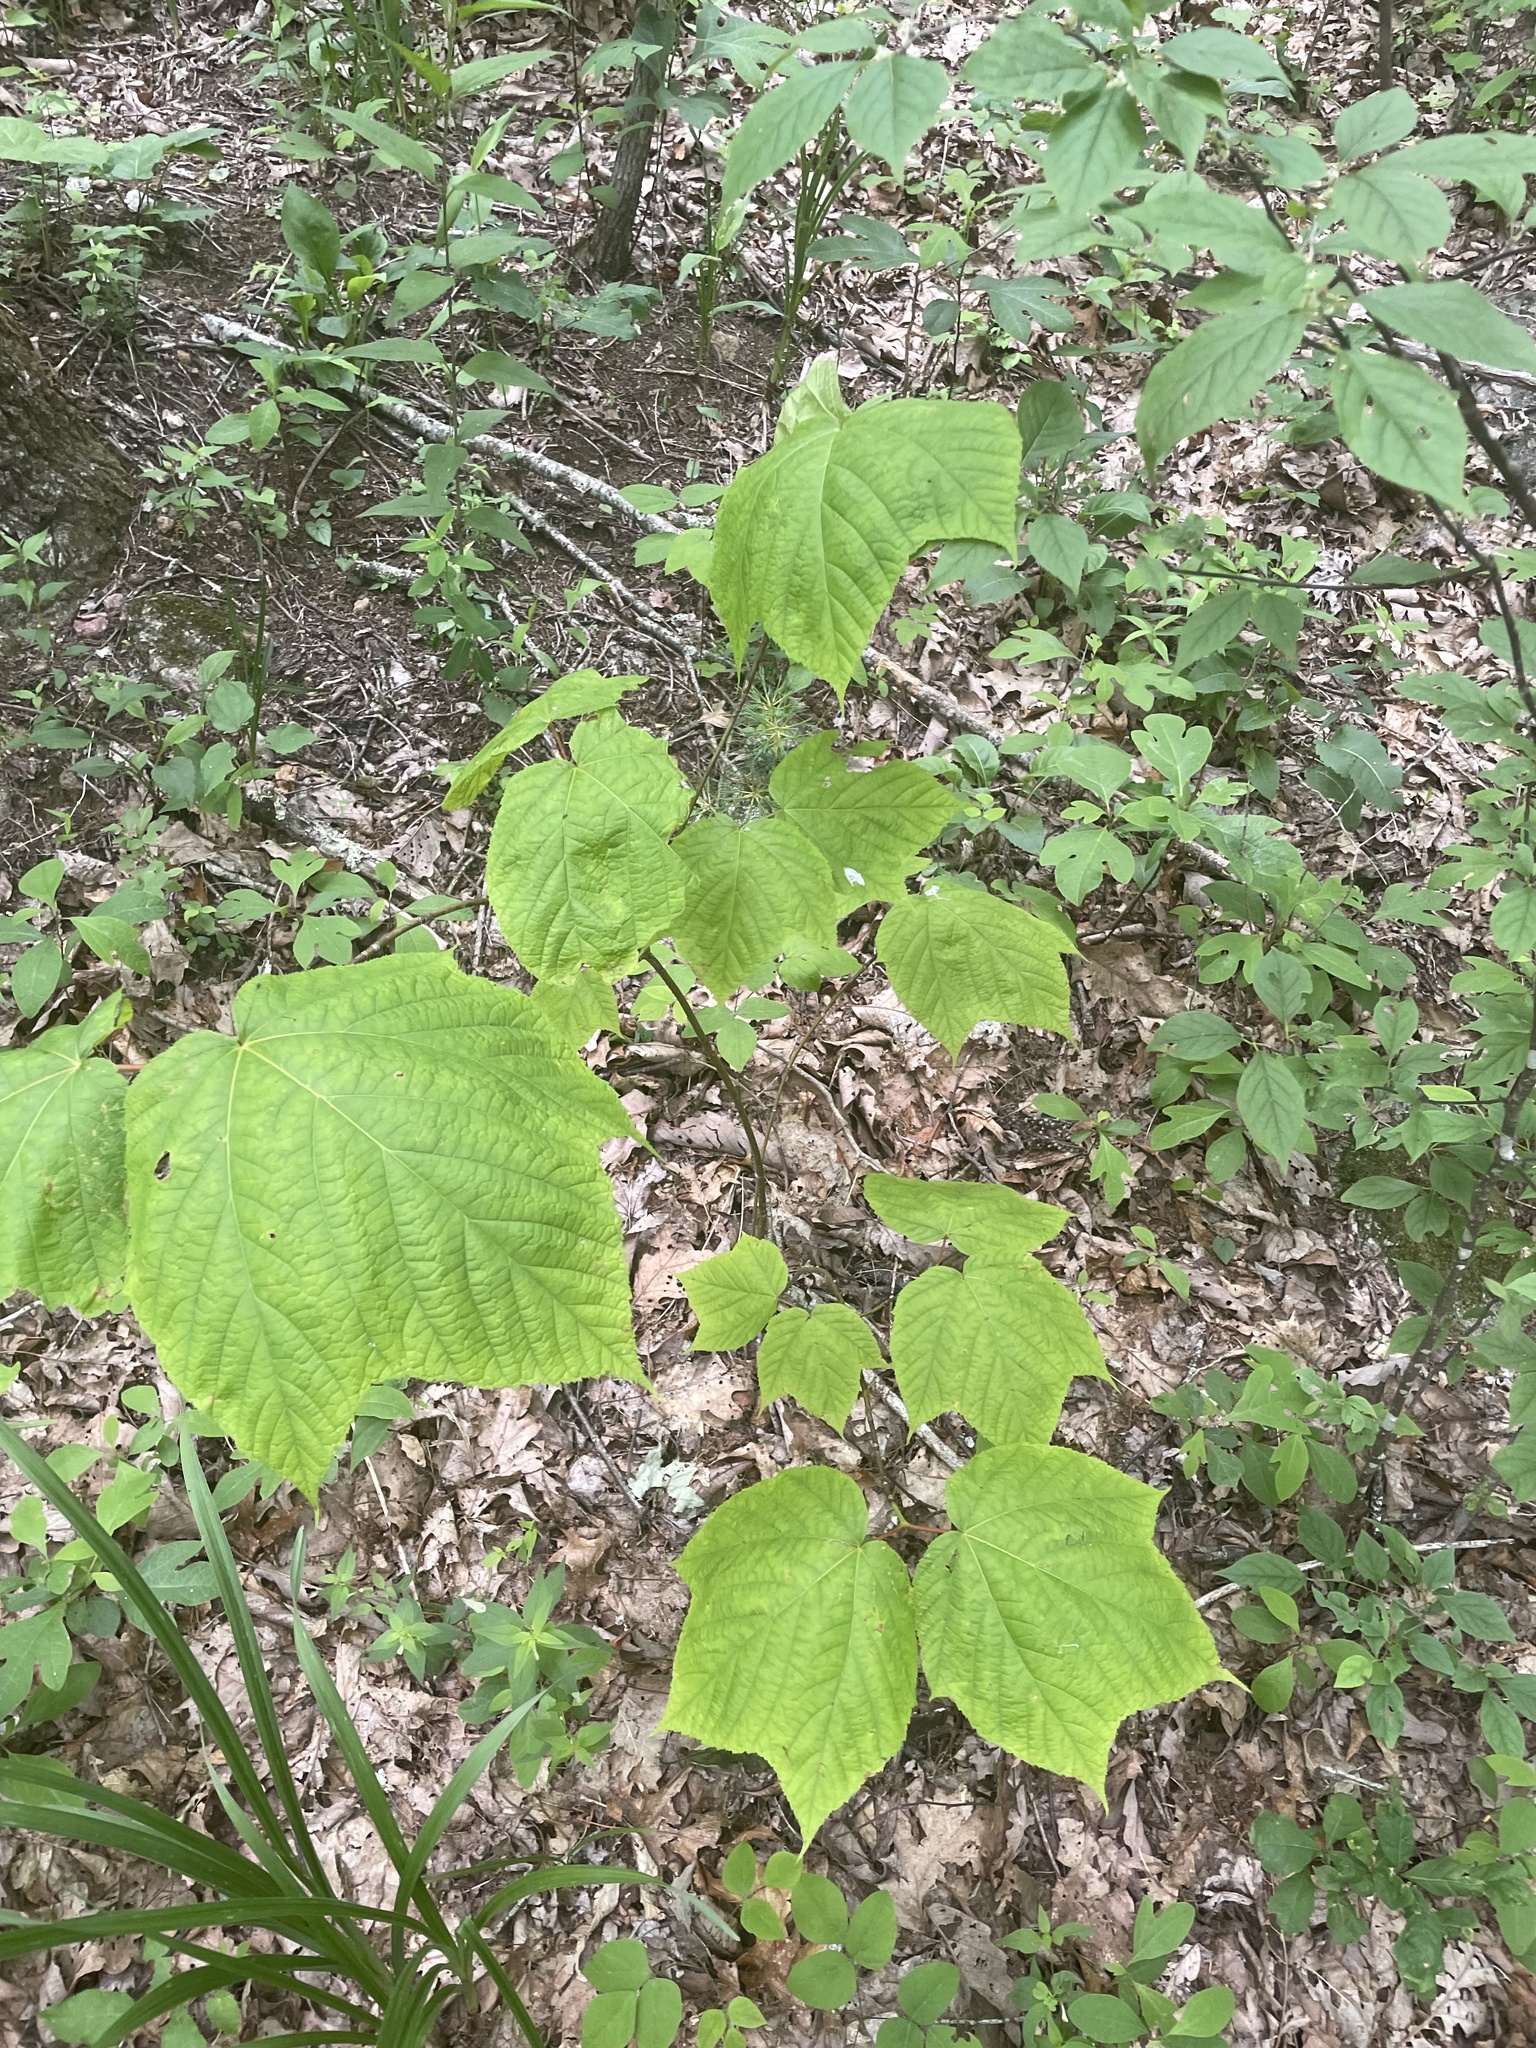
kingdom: Plantae
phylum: Tracheophyta
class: Magnoliopsida
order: Sapindales
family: Sapindaceae
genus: Acer
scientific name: Acer pensylvanicum
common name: Moosewood
